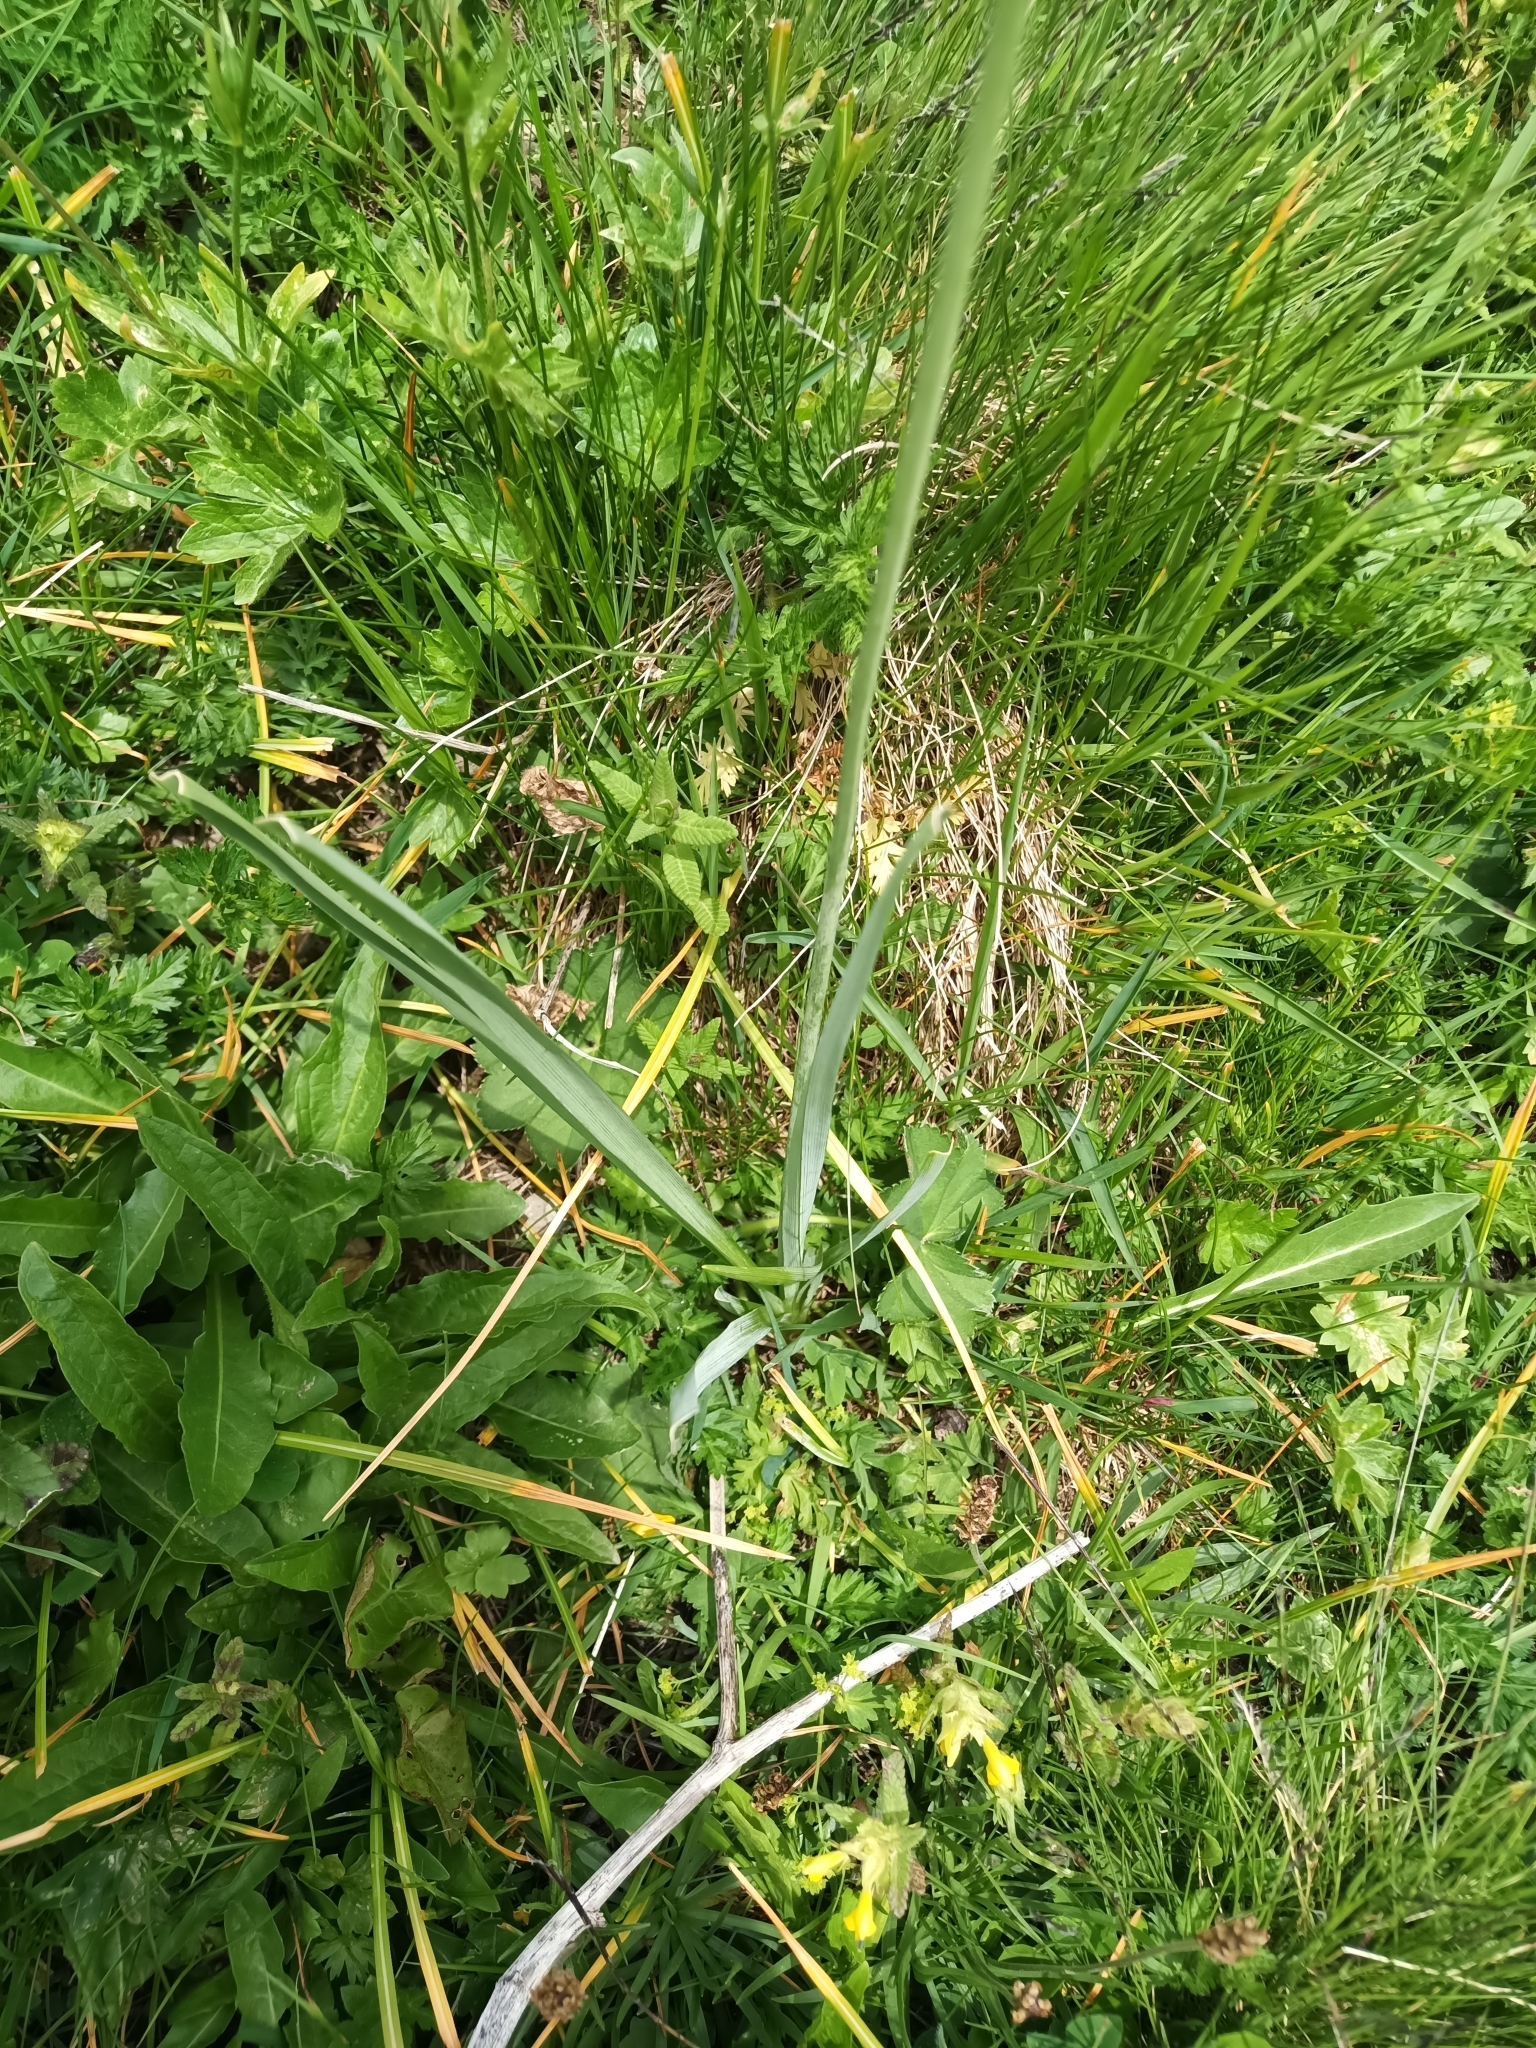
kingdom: Plantae
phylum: Tracheophyta
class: Liliopsida
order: Asparagales
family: Asparagaceae
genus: Paradisea
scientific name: Paradisea liliastrum
